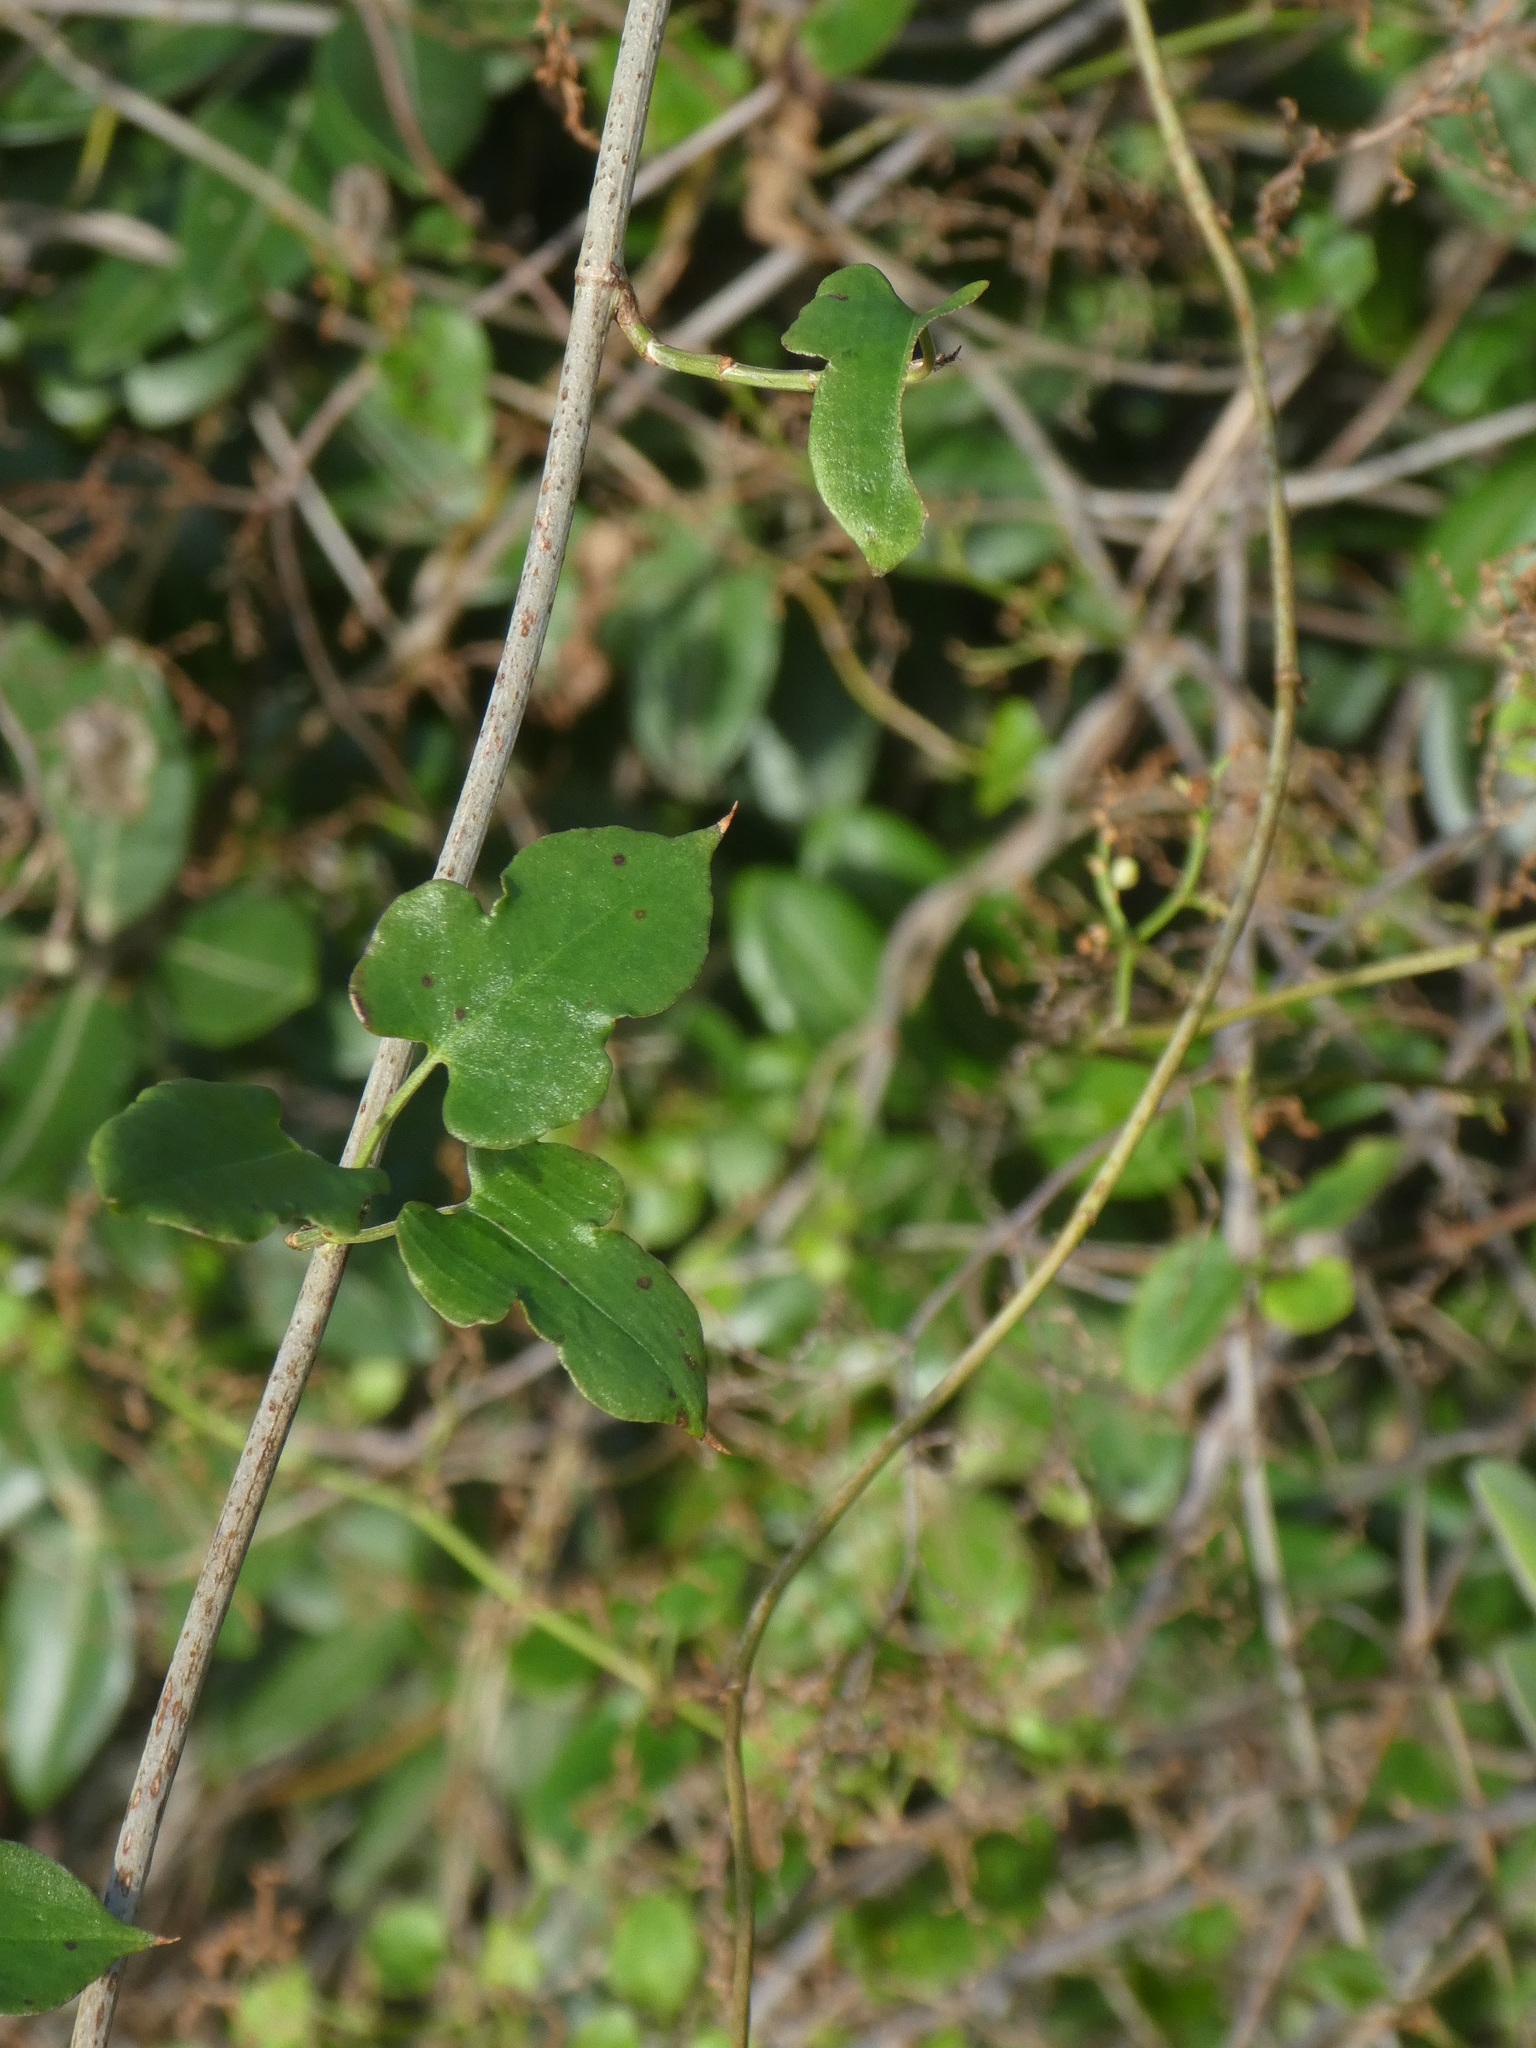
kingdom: Plantae
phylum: Tracheophyta
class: Magnoliopsida
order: Caryophyllales
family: Polygonaceae
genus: Muehlenbeckia
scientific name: Muehlenbeckia australis
